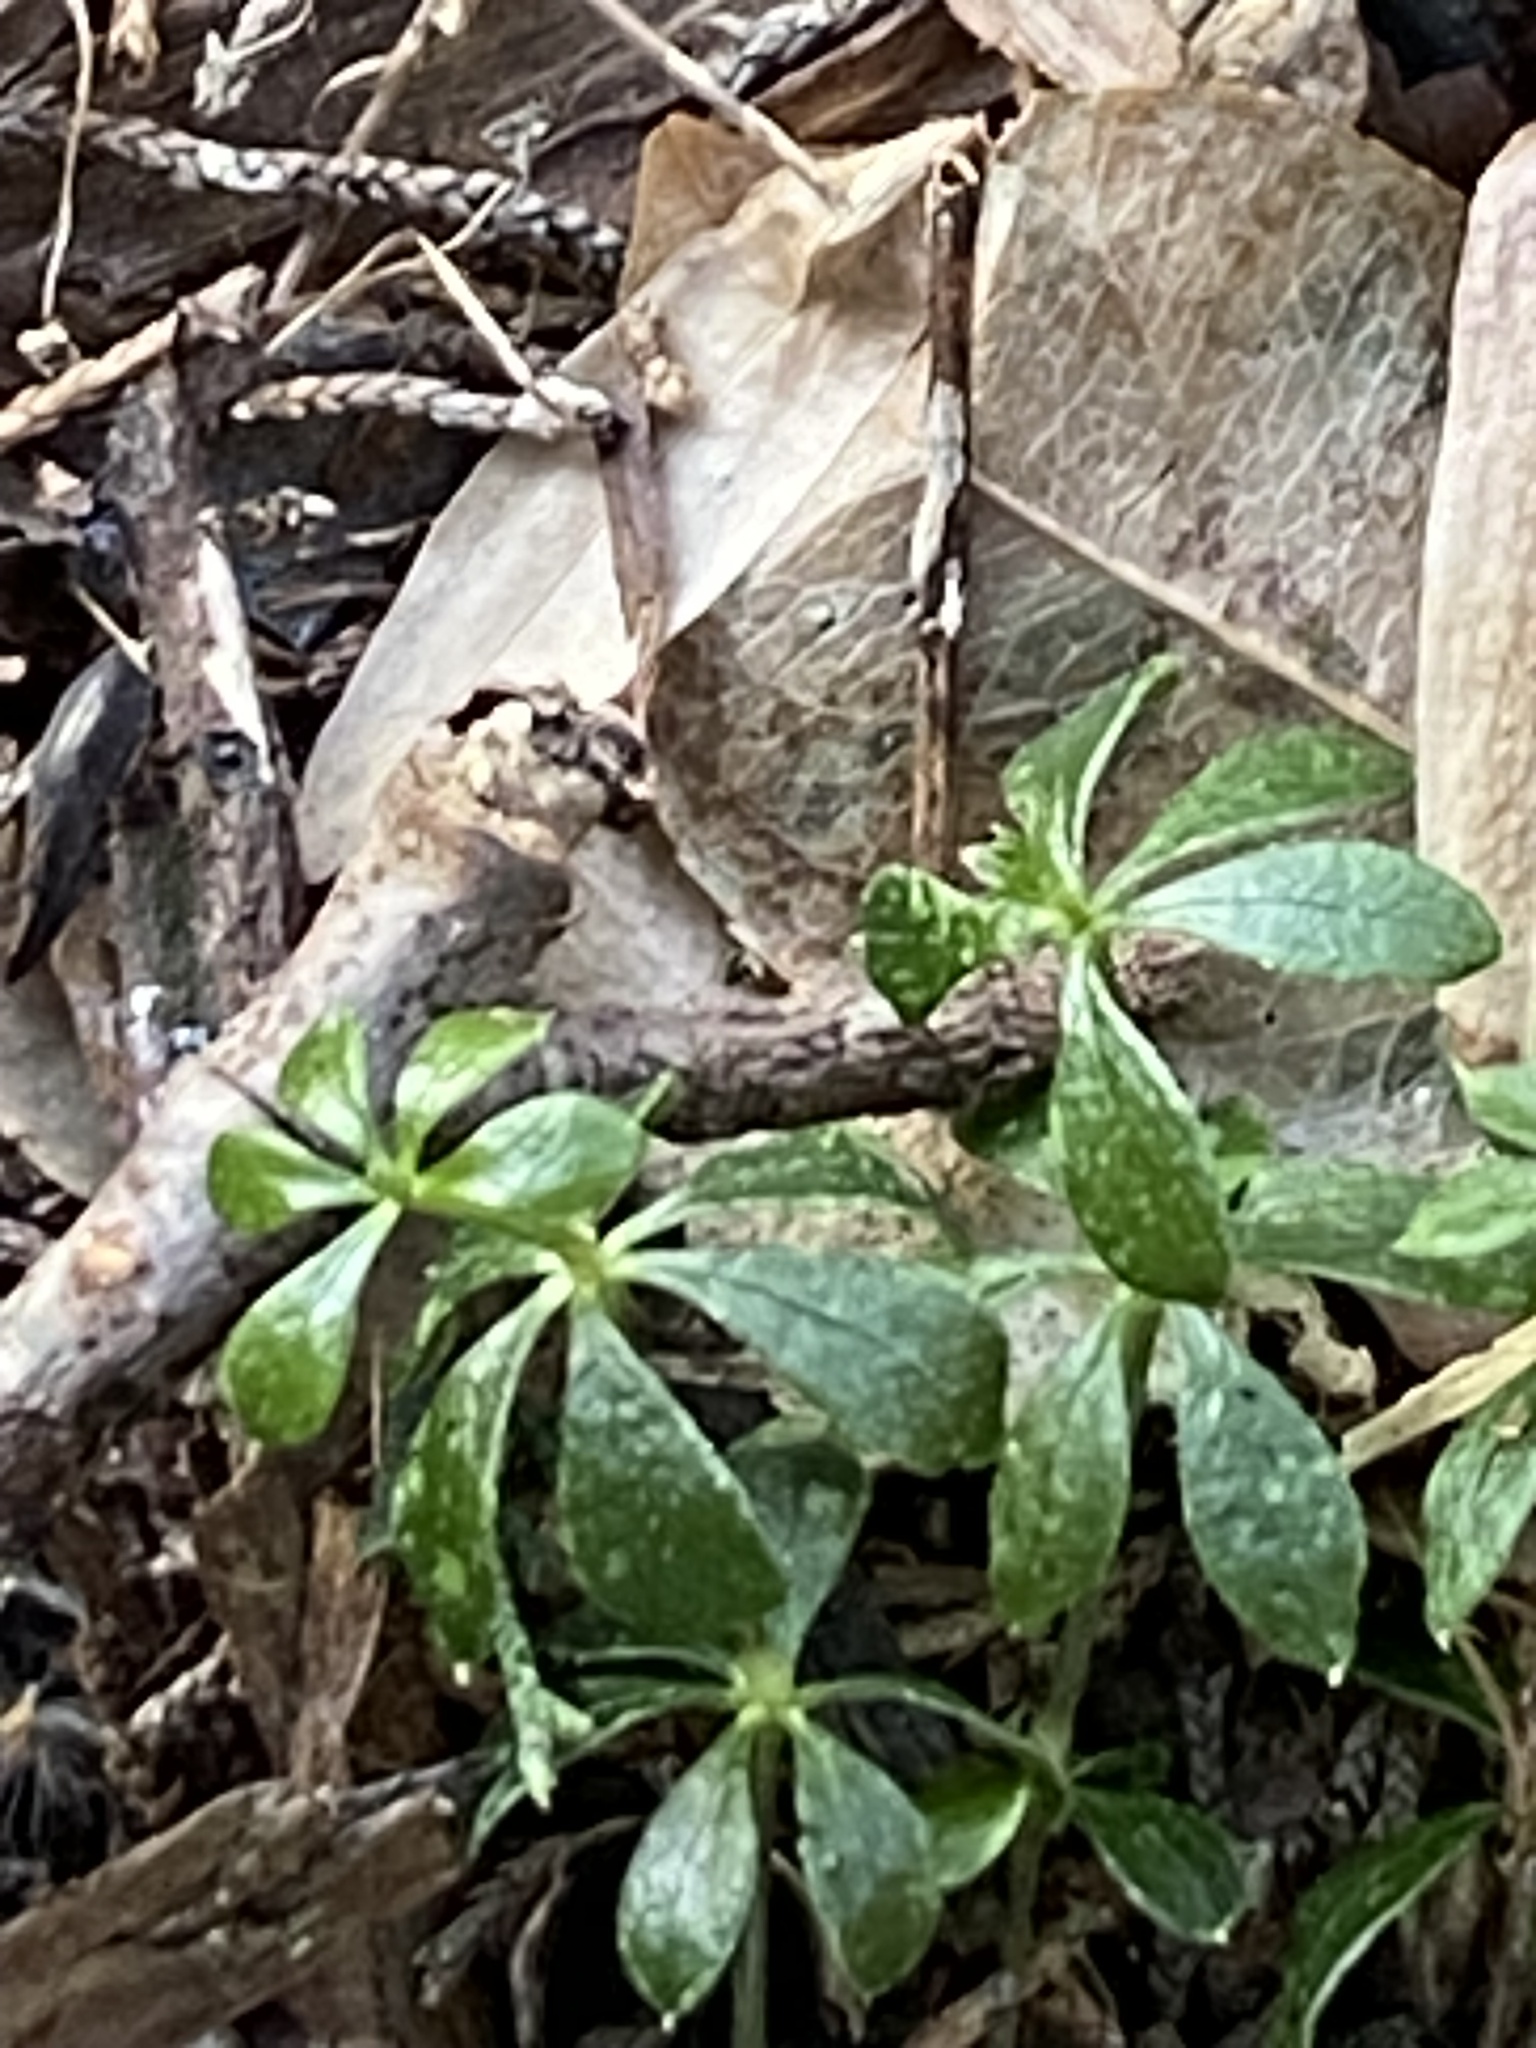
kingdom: Plantae
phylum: Tracheophyta
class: Magnoliopsida
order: Gentianales
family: Rubiaceae
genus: Galium
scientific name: Galium odoratum
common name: Sweet woodruff
